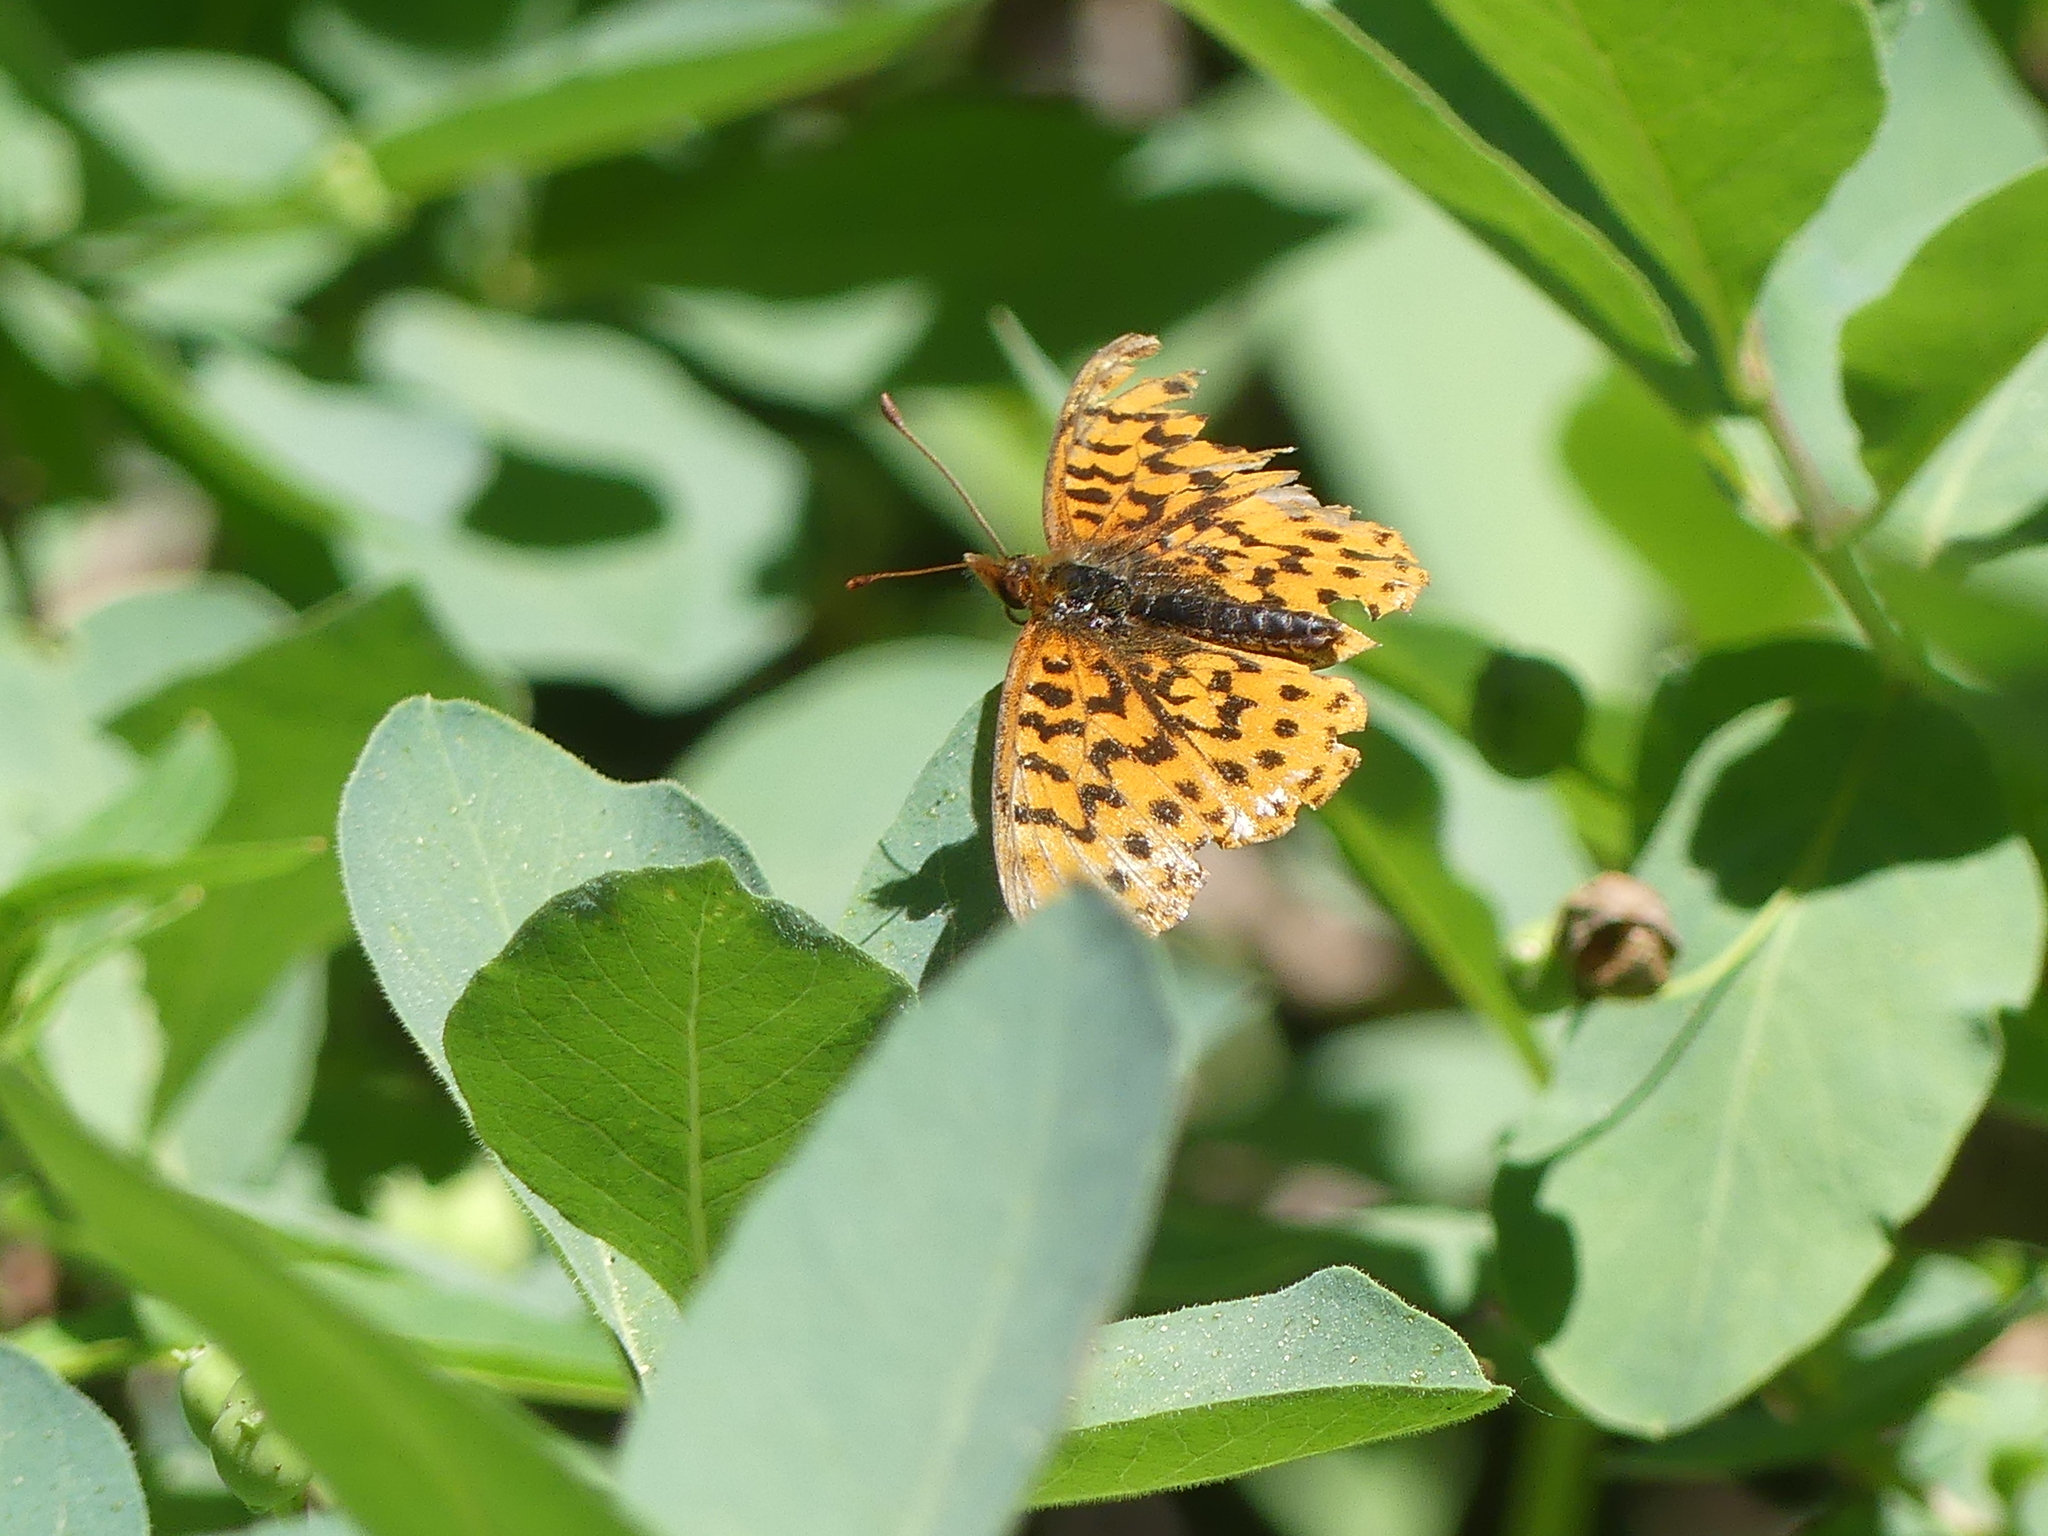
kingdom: Animalia
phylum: Arthropoda
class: Insecta
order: Lepidoptera
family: Nymphalidae
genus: Boloria
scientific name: Boloria epithore
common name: Pacific fritillary
